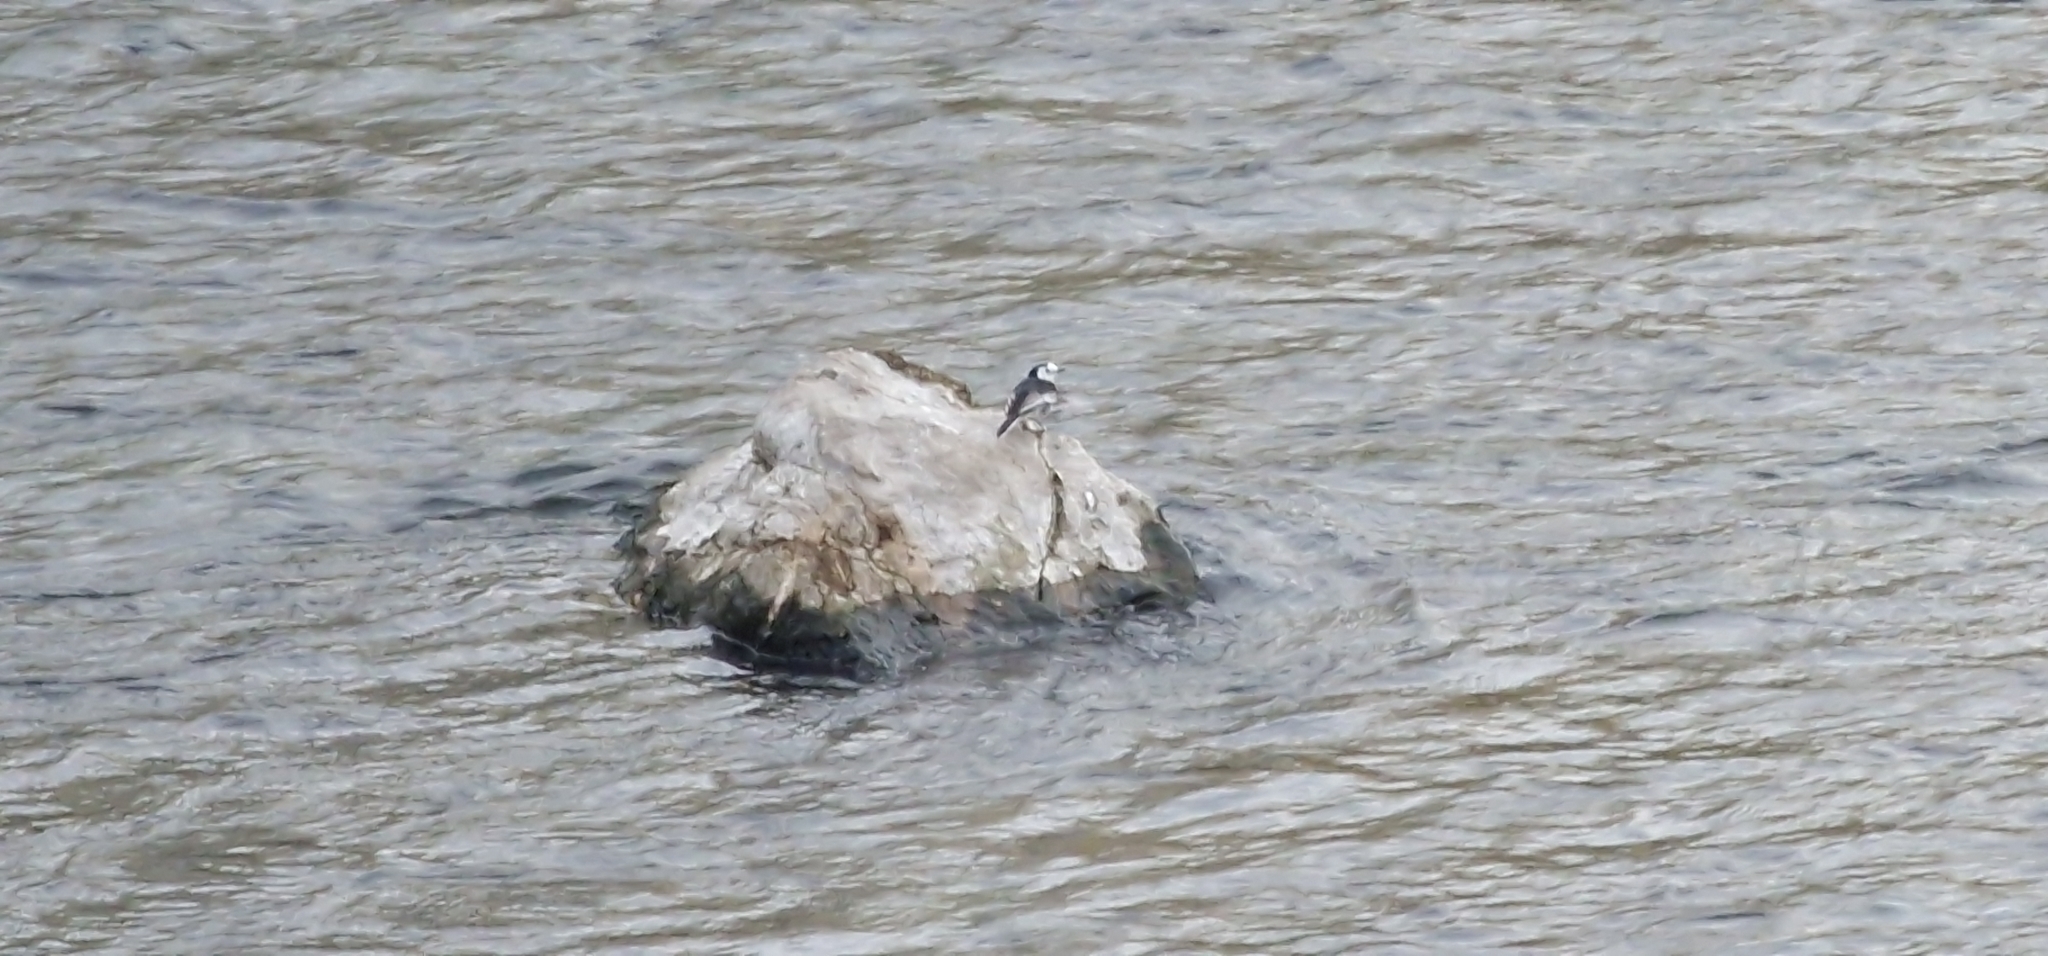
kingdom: Animalia
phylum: Chordata
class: Aves
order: Passeriformes
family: Motacillidae
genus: Motacilla
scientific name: Motacilla alba
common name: White wagtail
